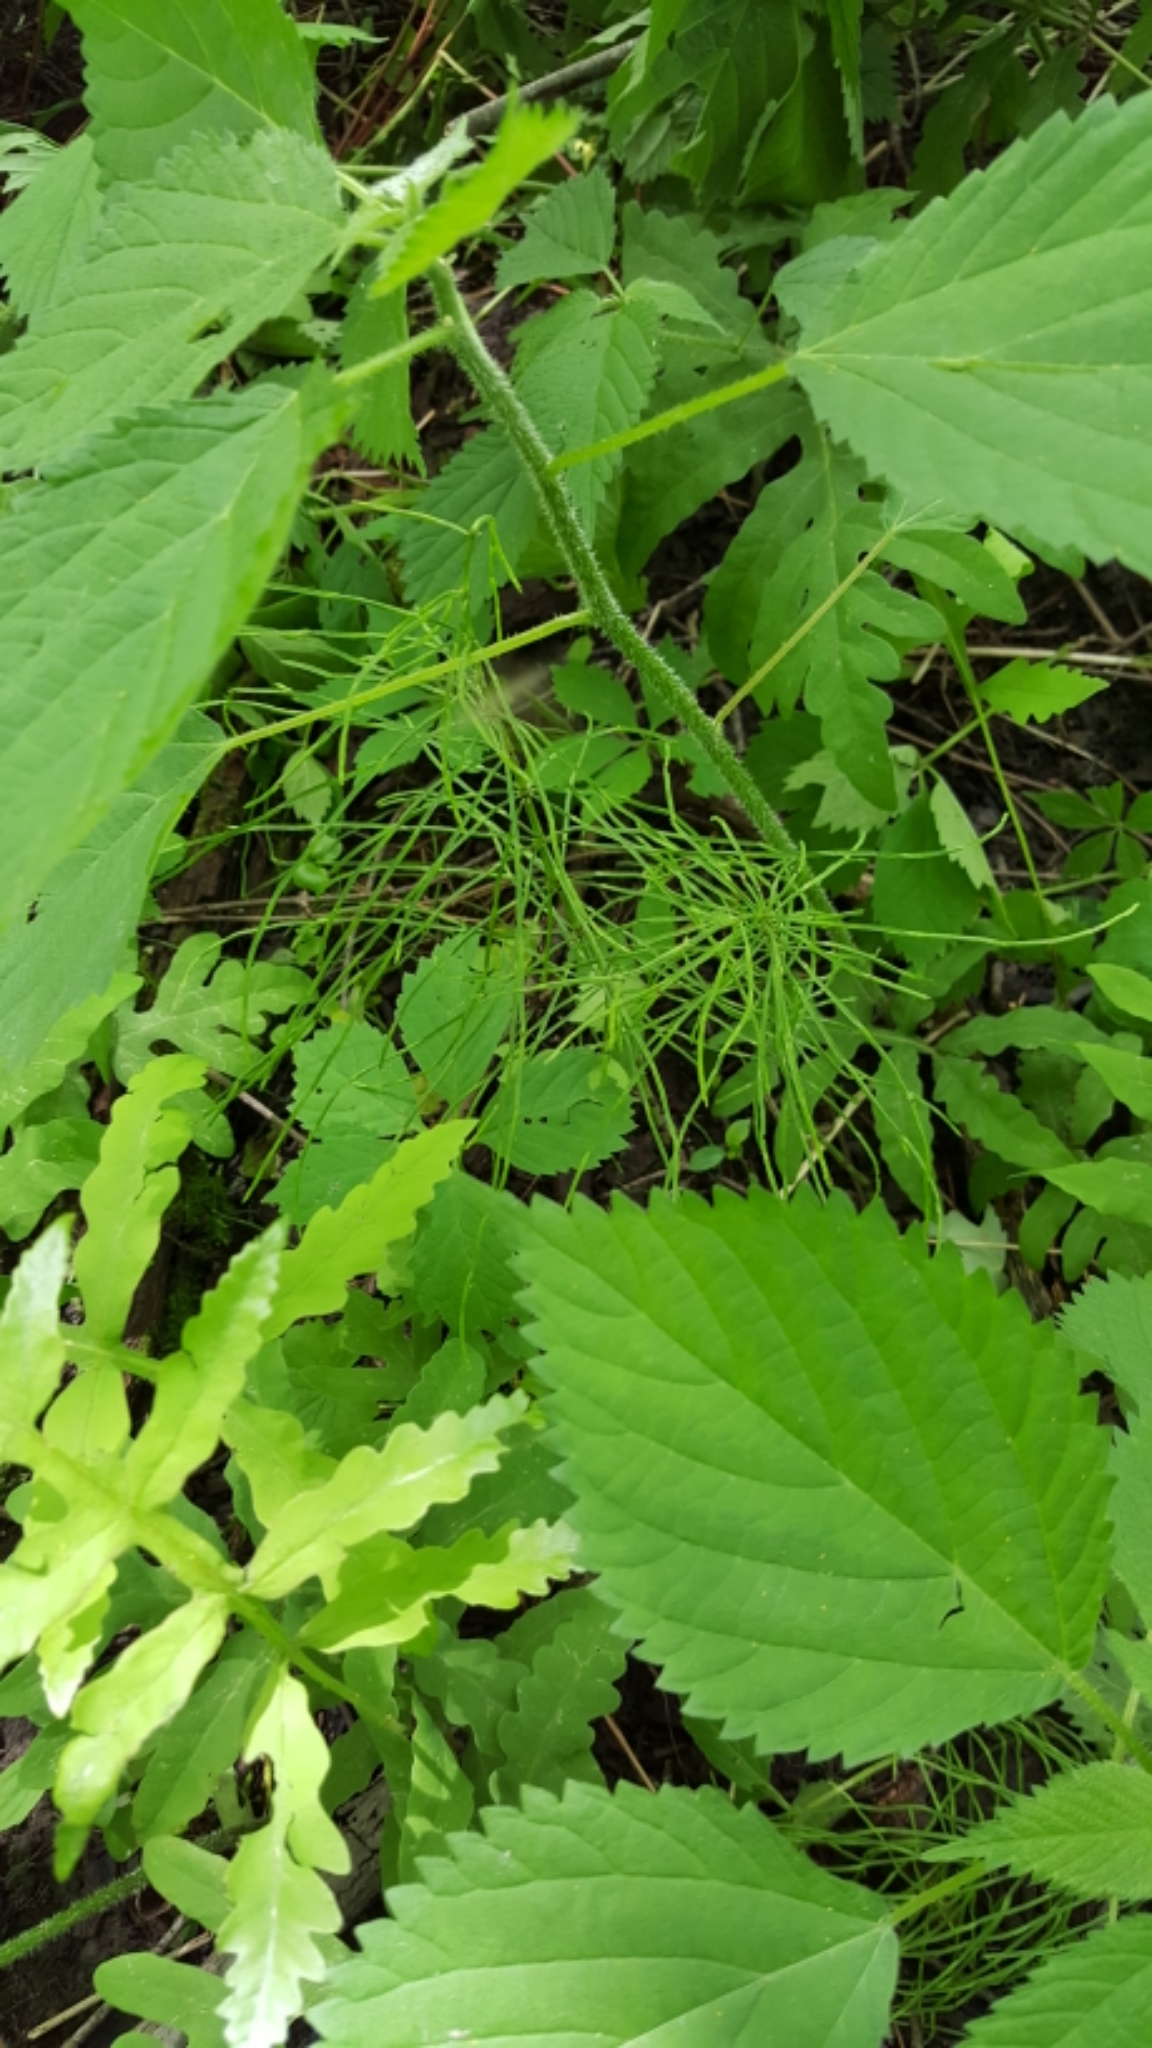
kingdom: Plantae
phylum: Tracheophyta
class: Polypodiopsida
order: Equisetales
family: Equisetaceae
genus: Equisetum
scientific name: Equisetum arvense
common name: Field horsetail
